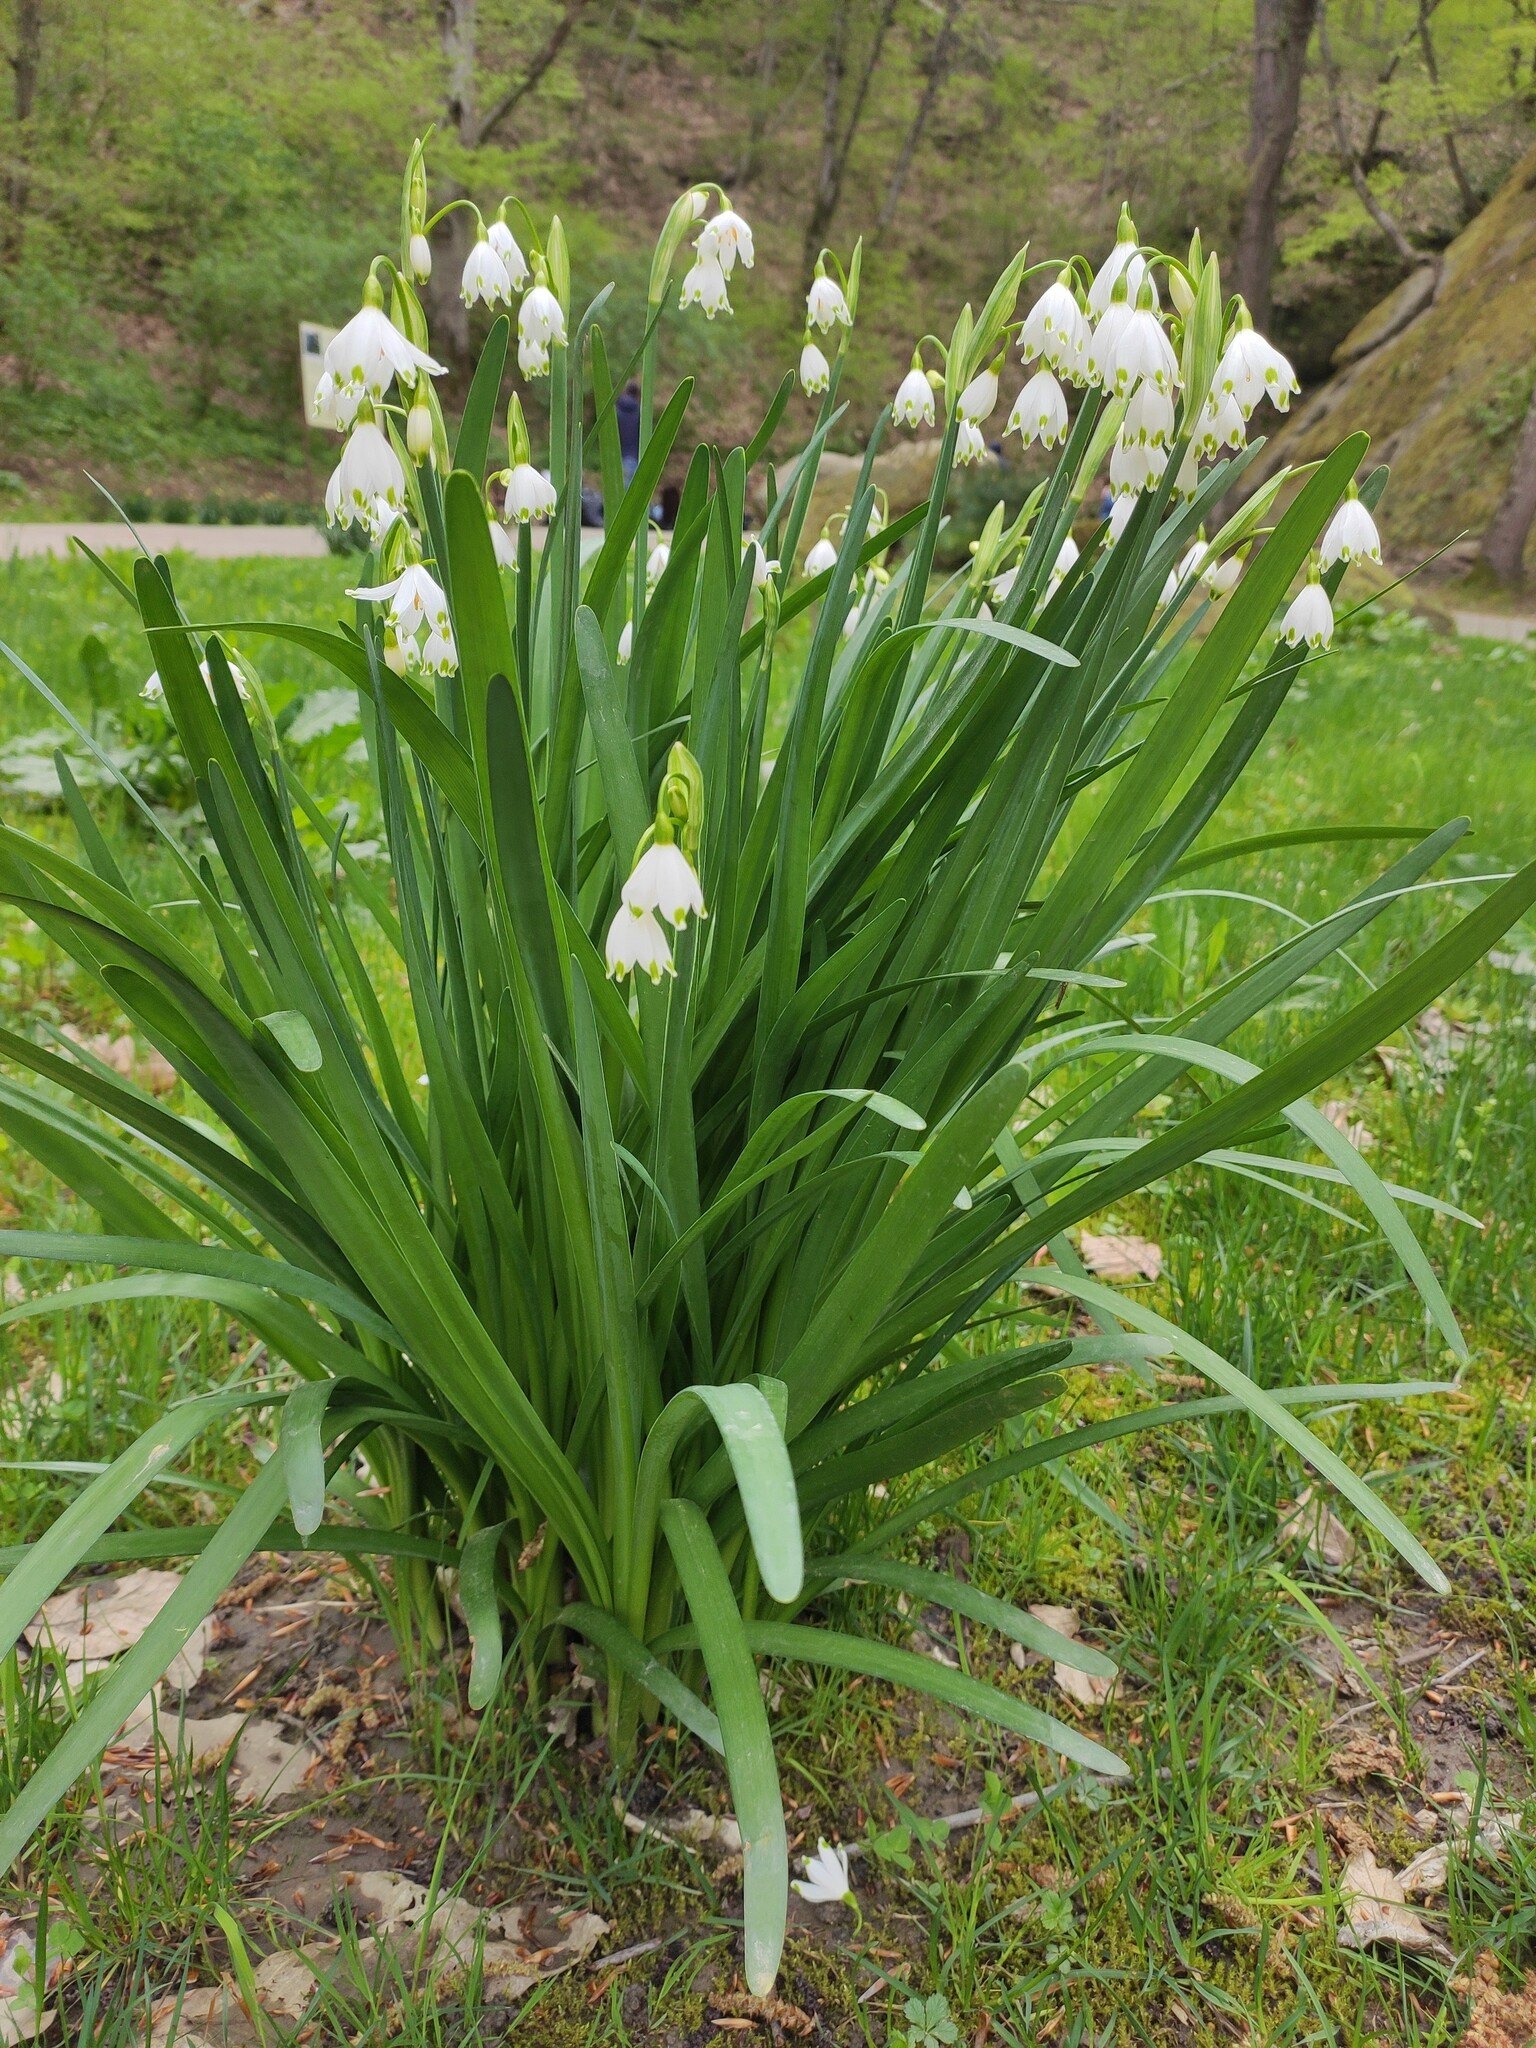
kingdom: Plantae
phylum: Tracheophyta
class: Liliopsida
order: Asparagales
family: Amaryllidaceae
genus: Leucojum
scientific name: Leucojum aestivum
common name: Summer snowflake
